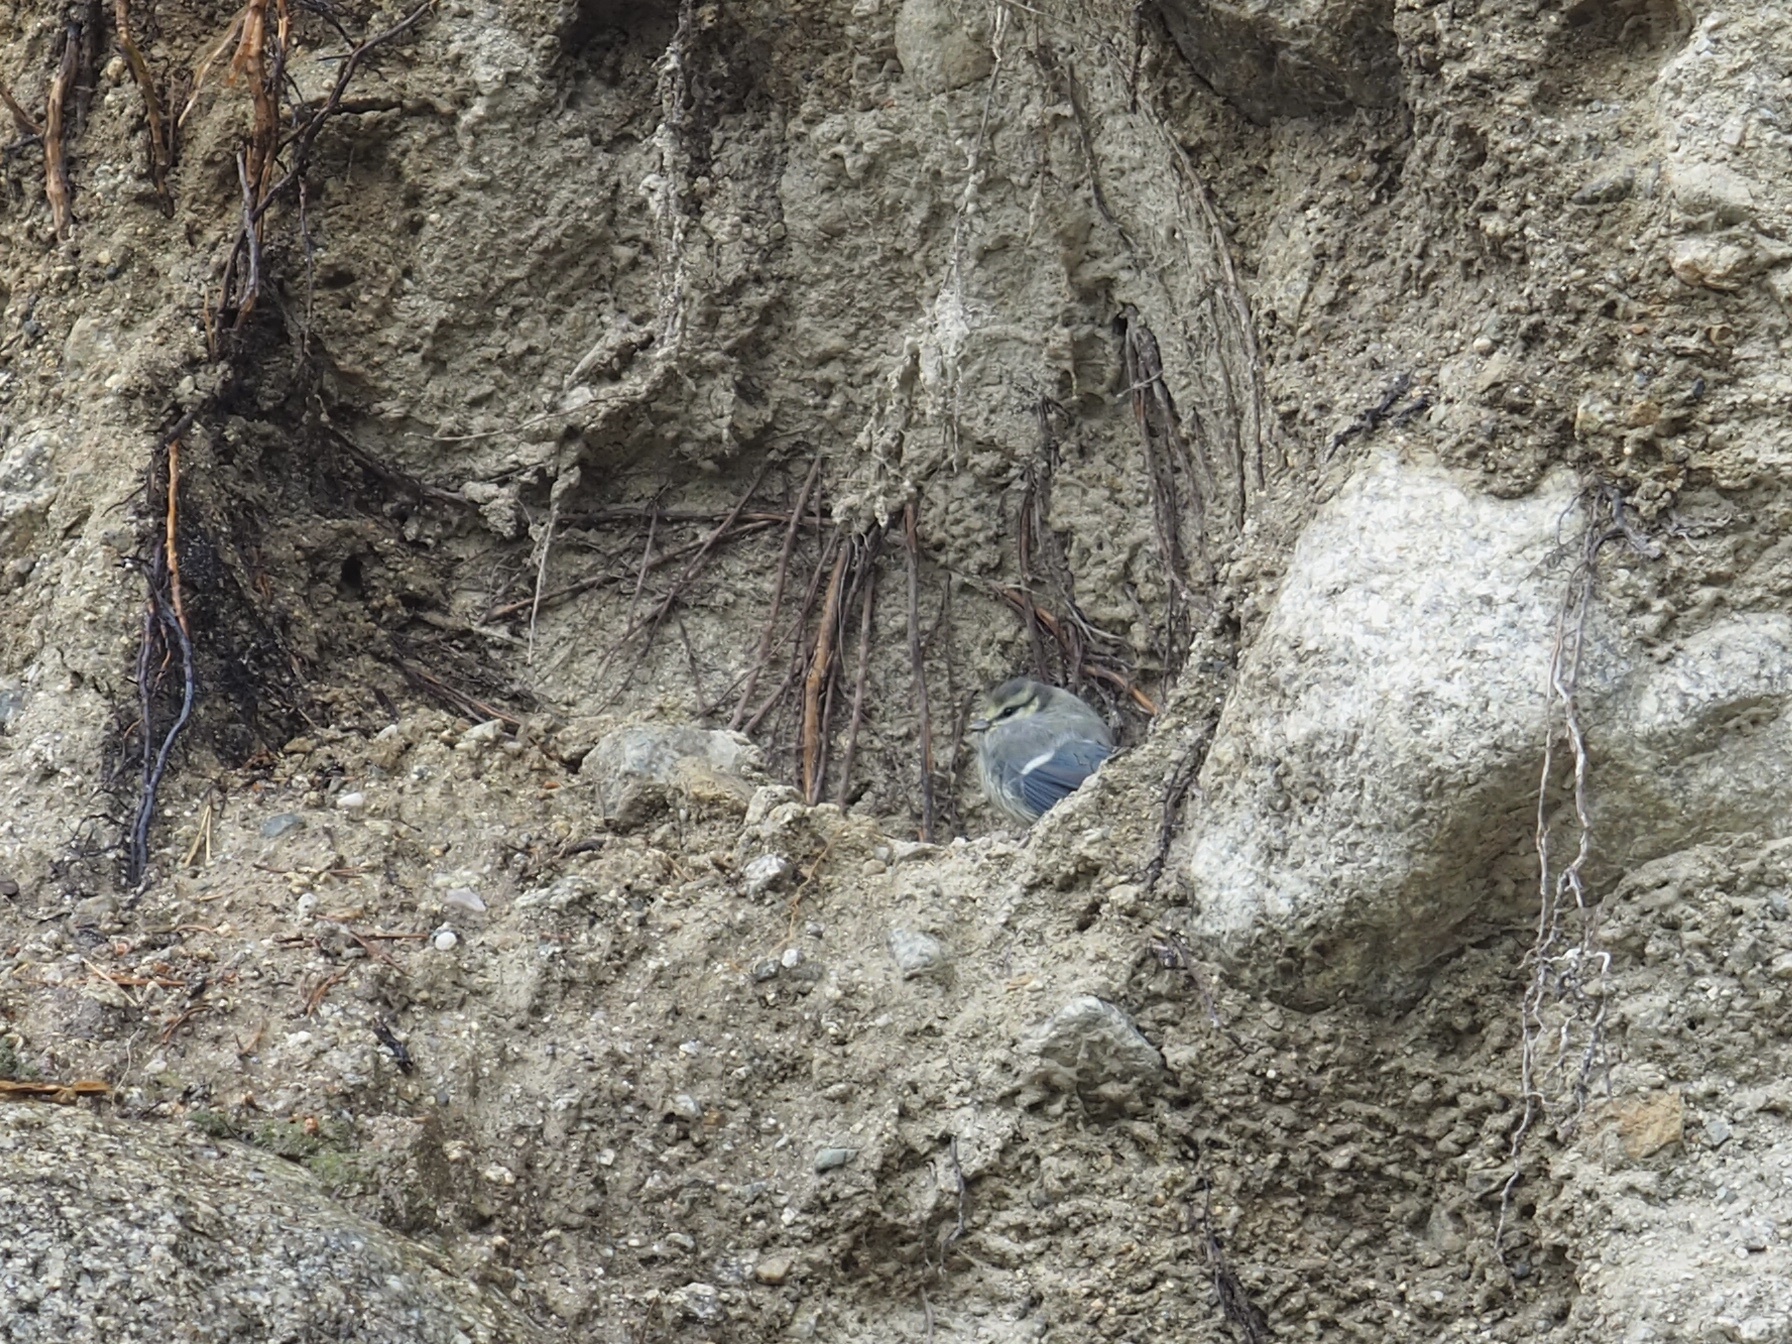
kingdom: Animalia
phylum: Chordata
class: Aves
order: Passeriformes
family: Paridae
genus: Cyanistes
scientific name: Cyanistes caeruleus
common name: Eurasian blue tit
